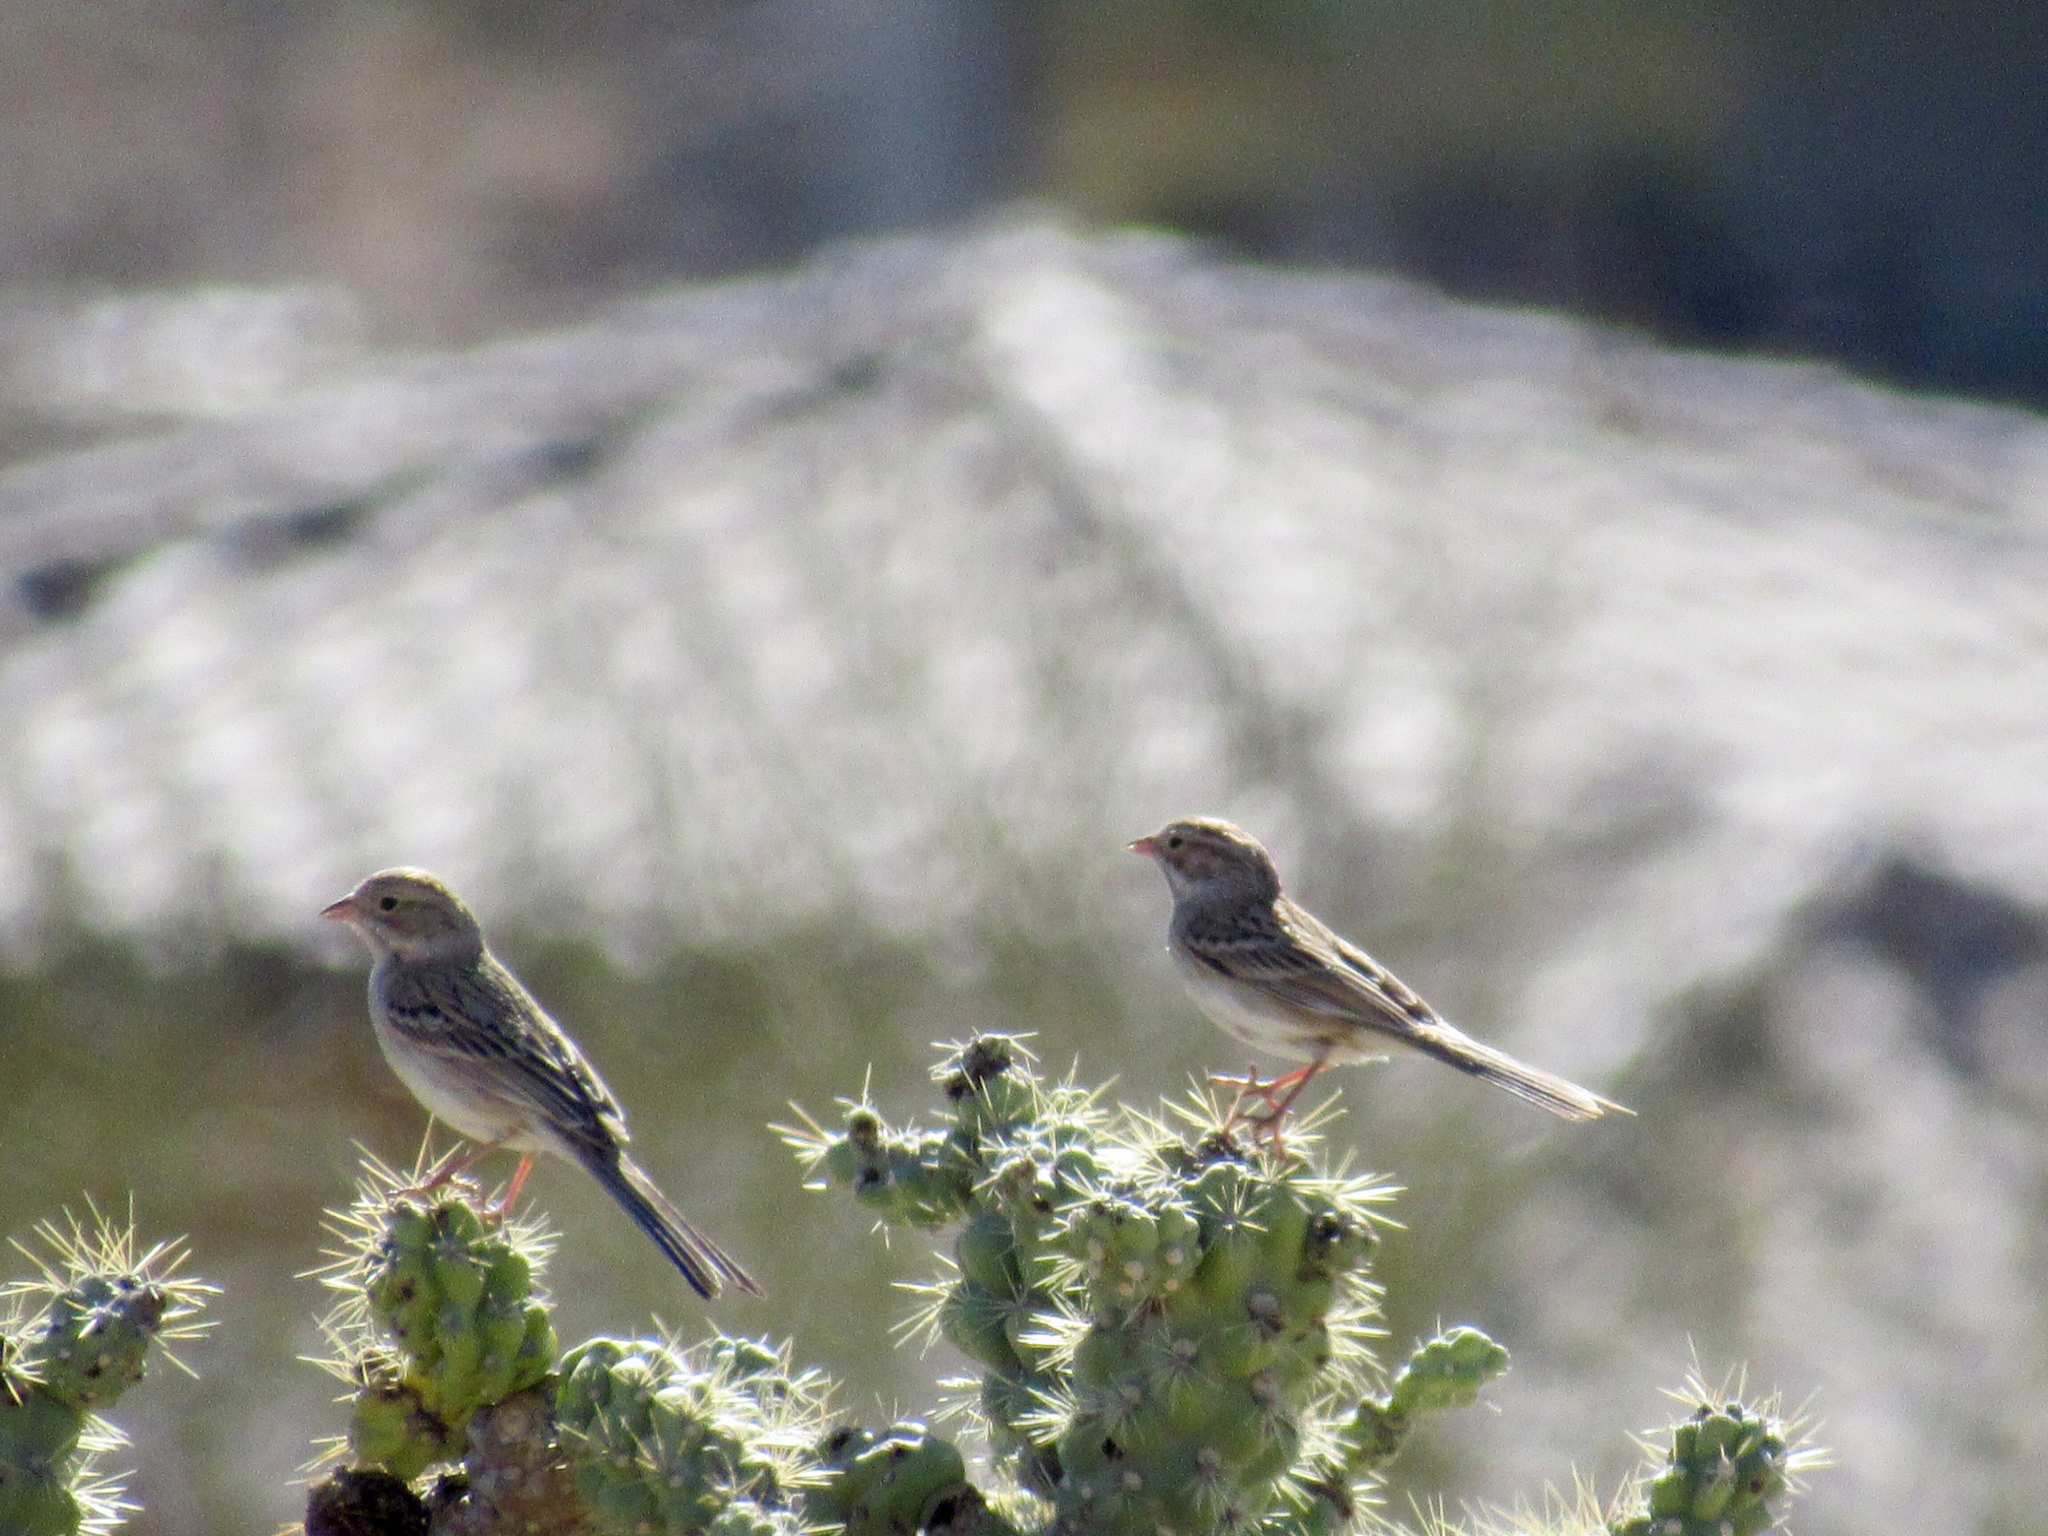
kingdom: Animalia
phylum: Chordata
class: Aves
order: Passeriformes
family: Passerellidae
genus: Spizella
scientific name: Spizella breweri
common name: Brewer's sparrow
